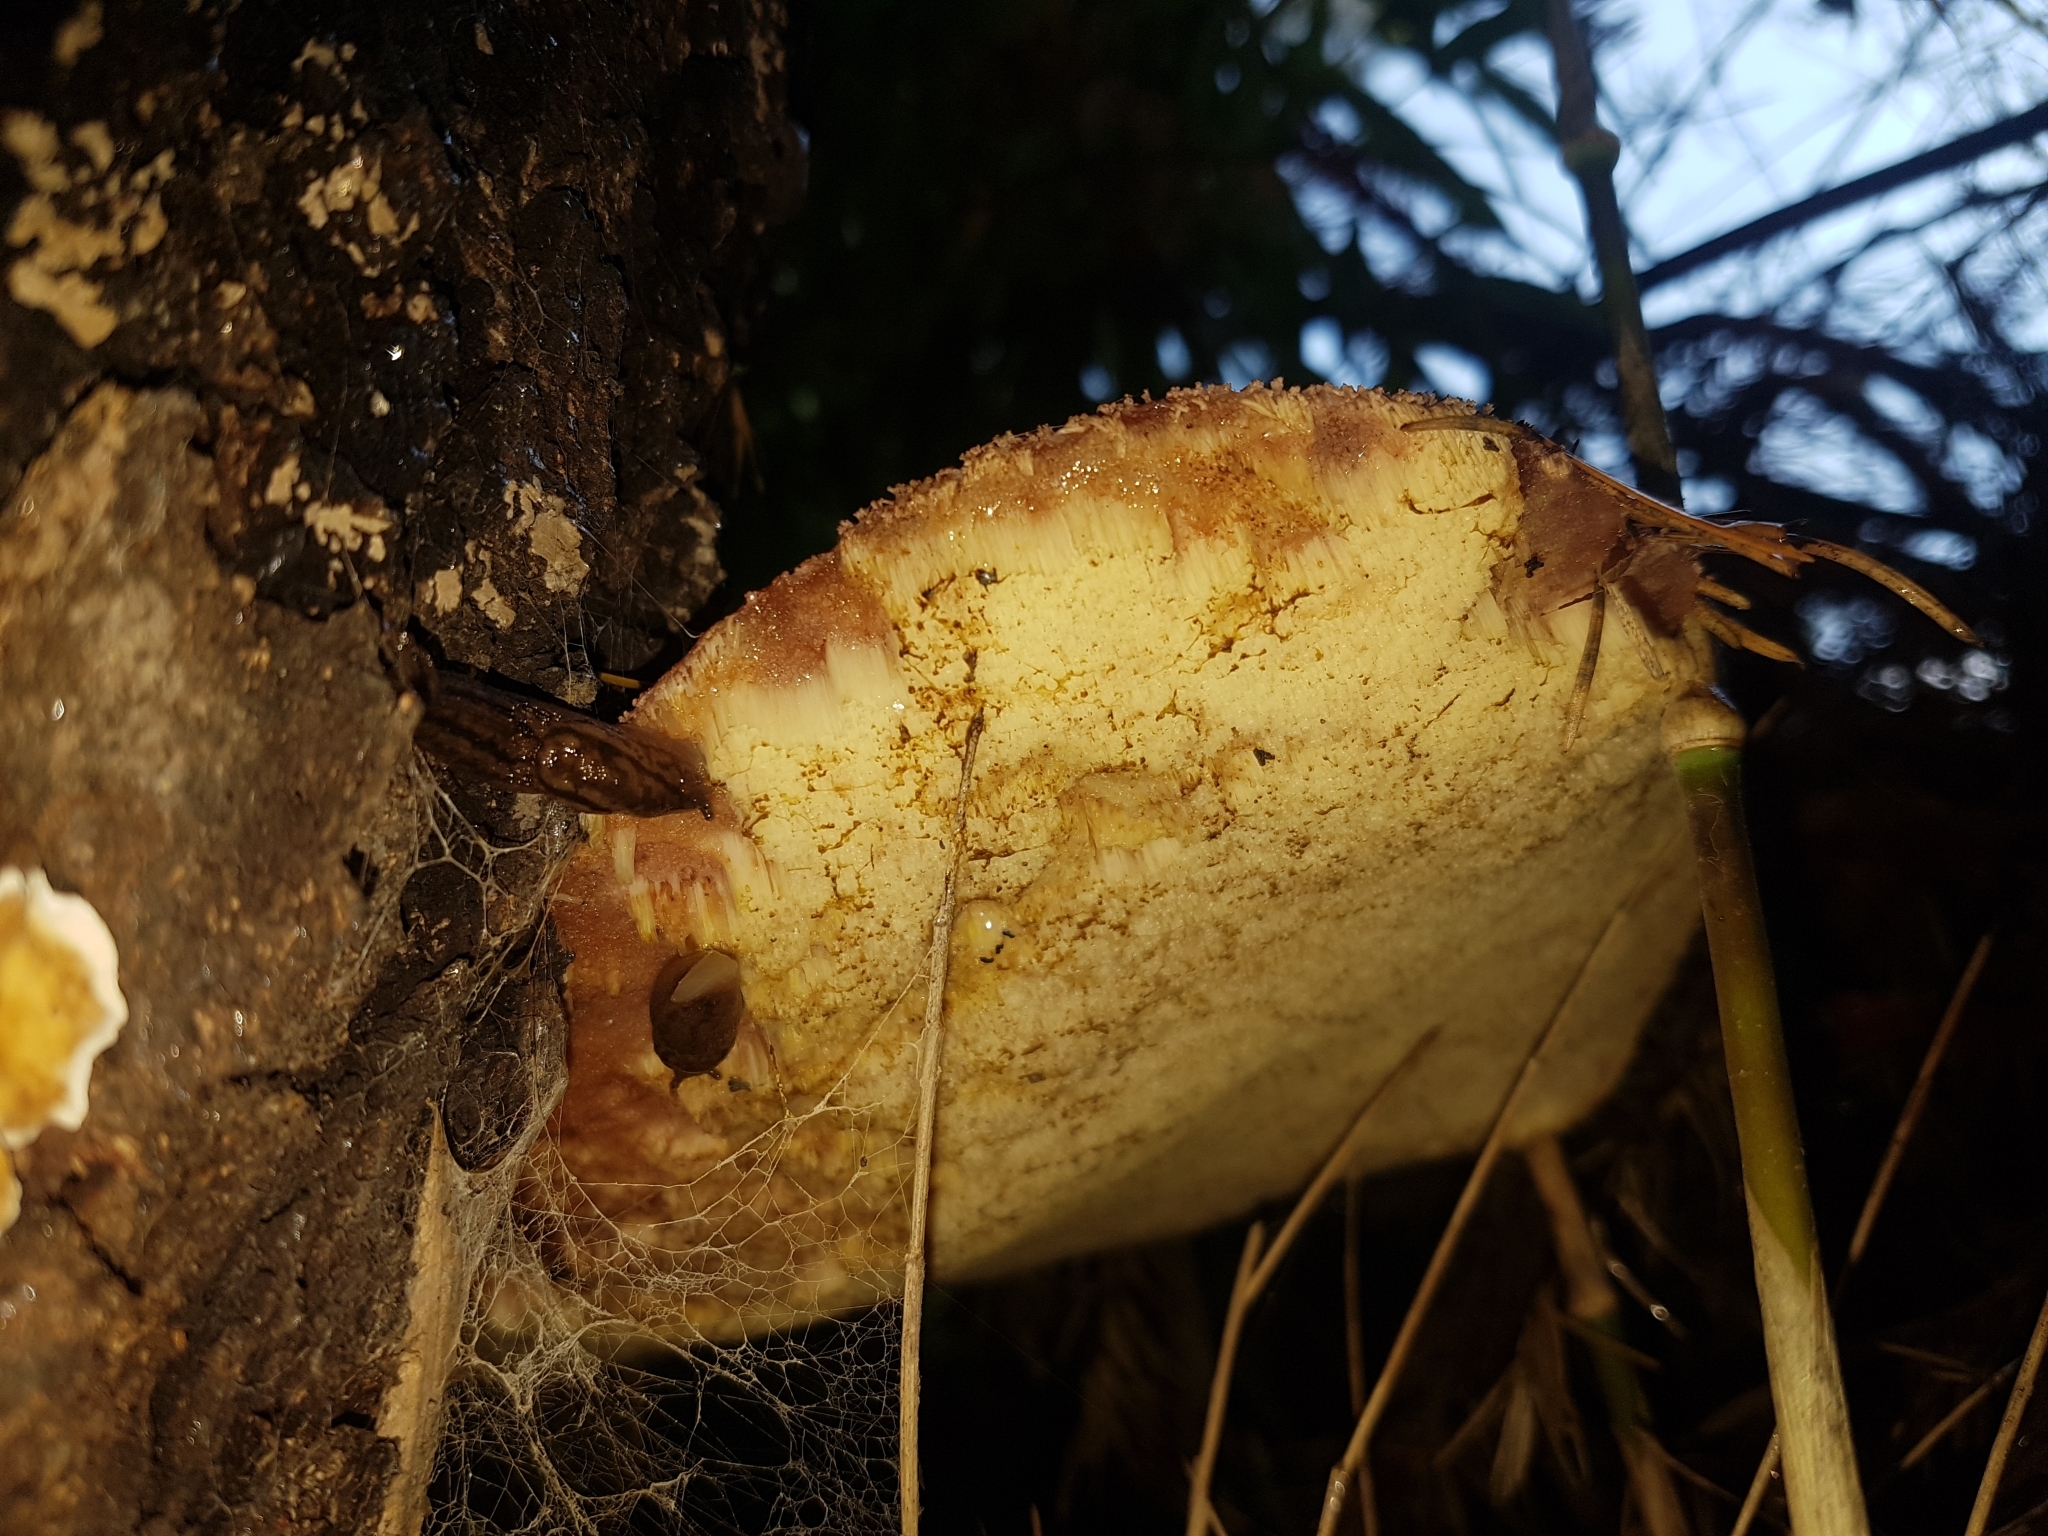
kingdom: Fungi
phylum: Basidiomycota
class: Agaricomycetes
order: Agaricales
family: Fistulinaceae
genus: Fistulina
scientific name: Fistulina antarctica
